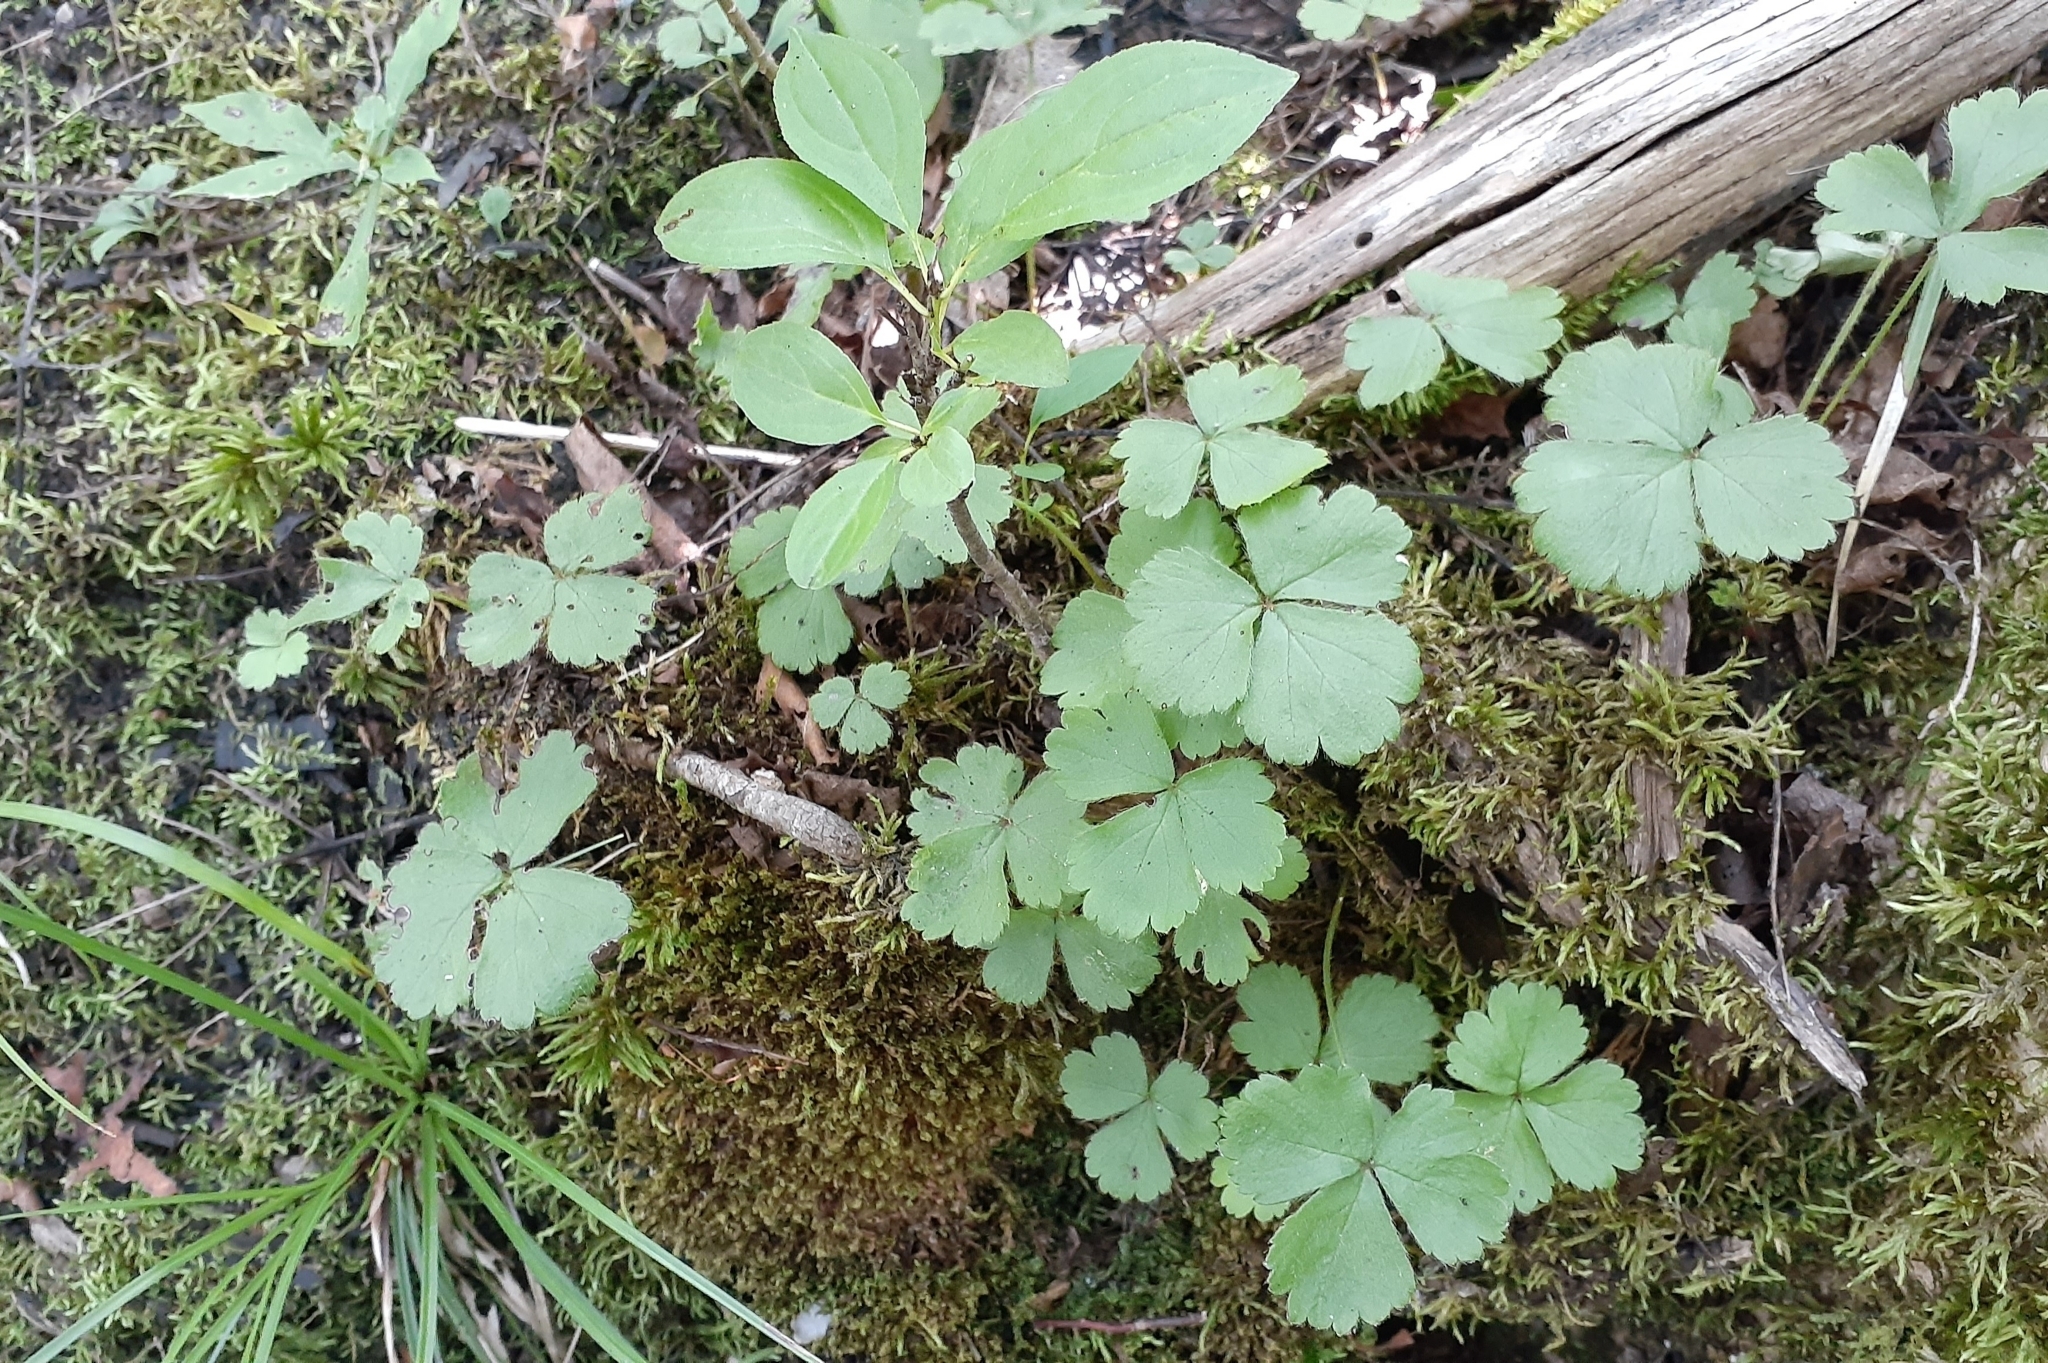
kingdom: Plantae
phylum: Tracheophyta
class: Magnoliopsida
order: Rosales
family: Rosaceae
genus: Geum
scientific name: Geum fragarioides
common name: Appalachian barren strawberry
